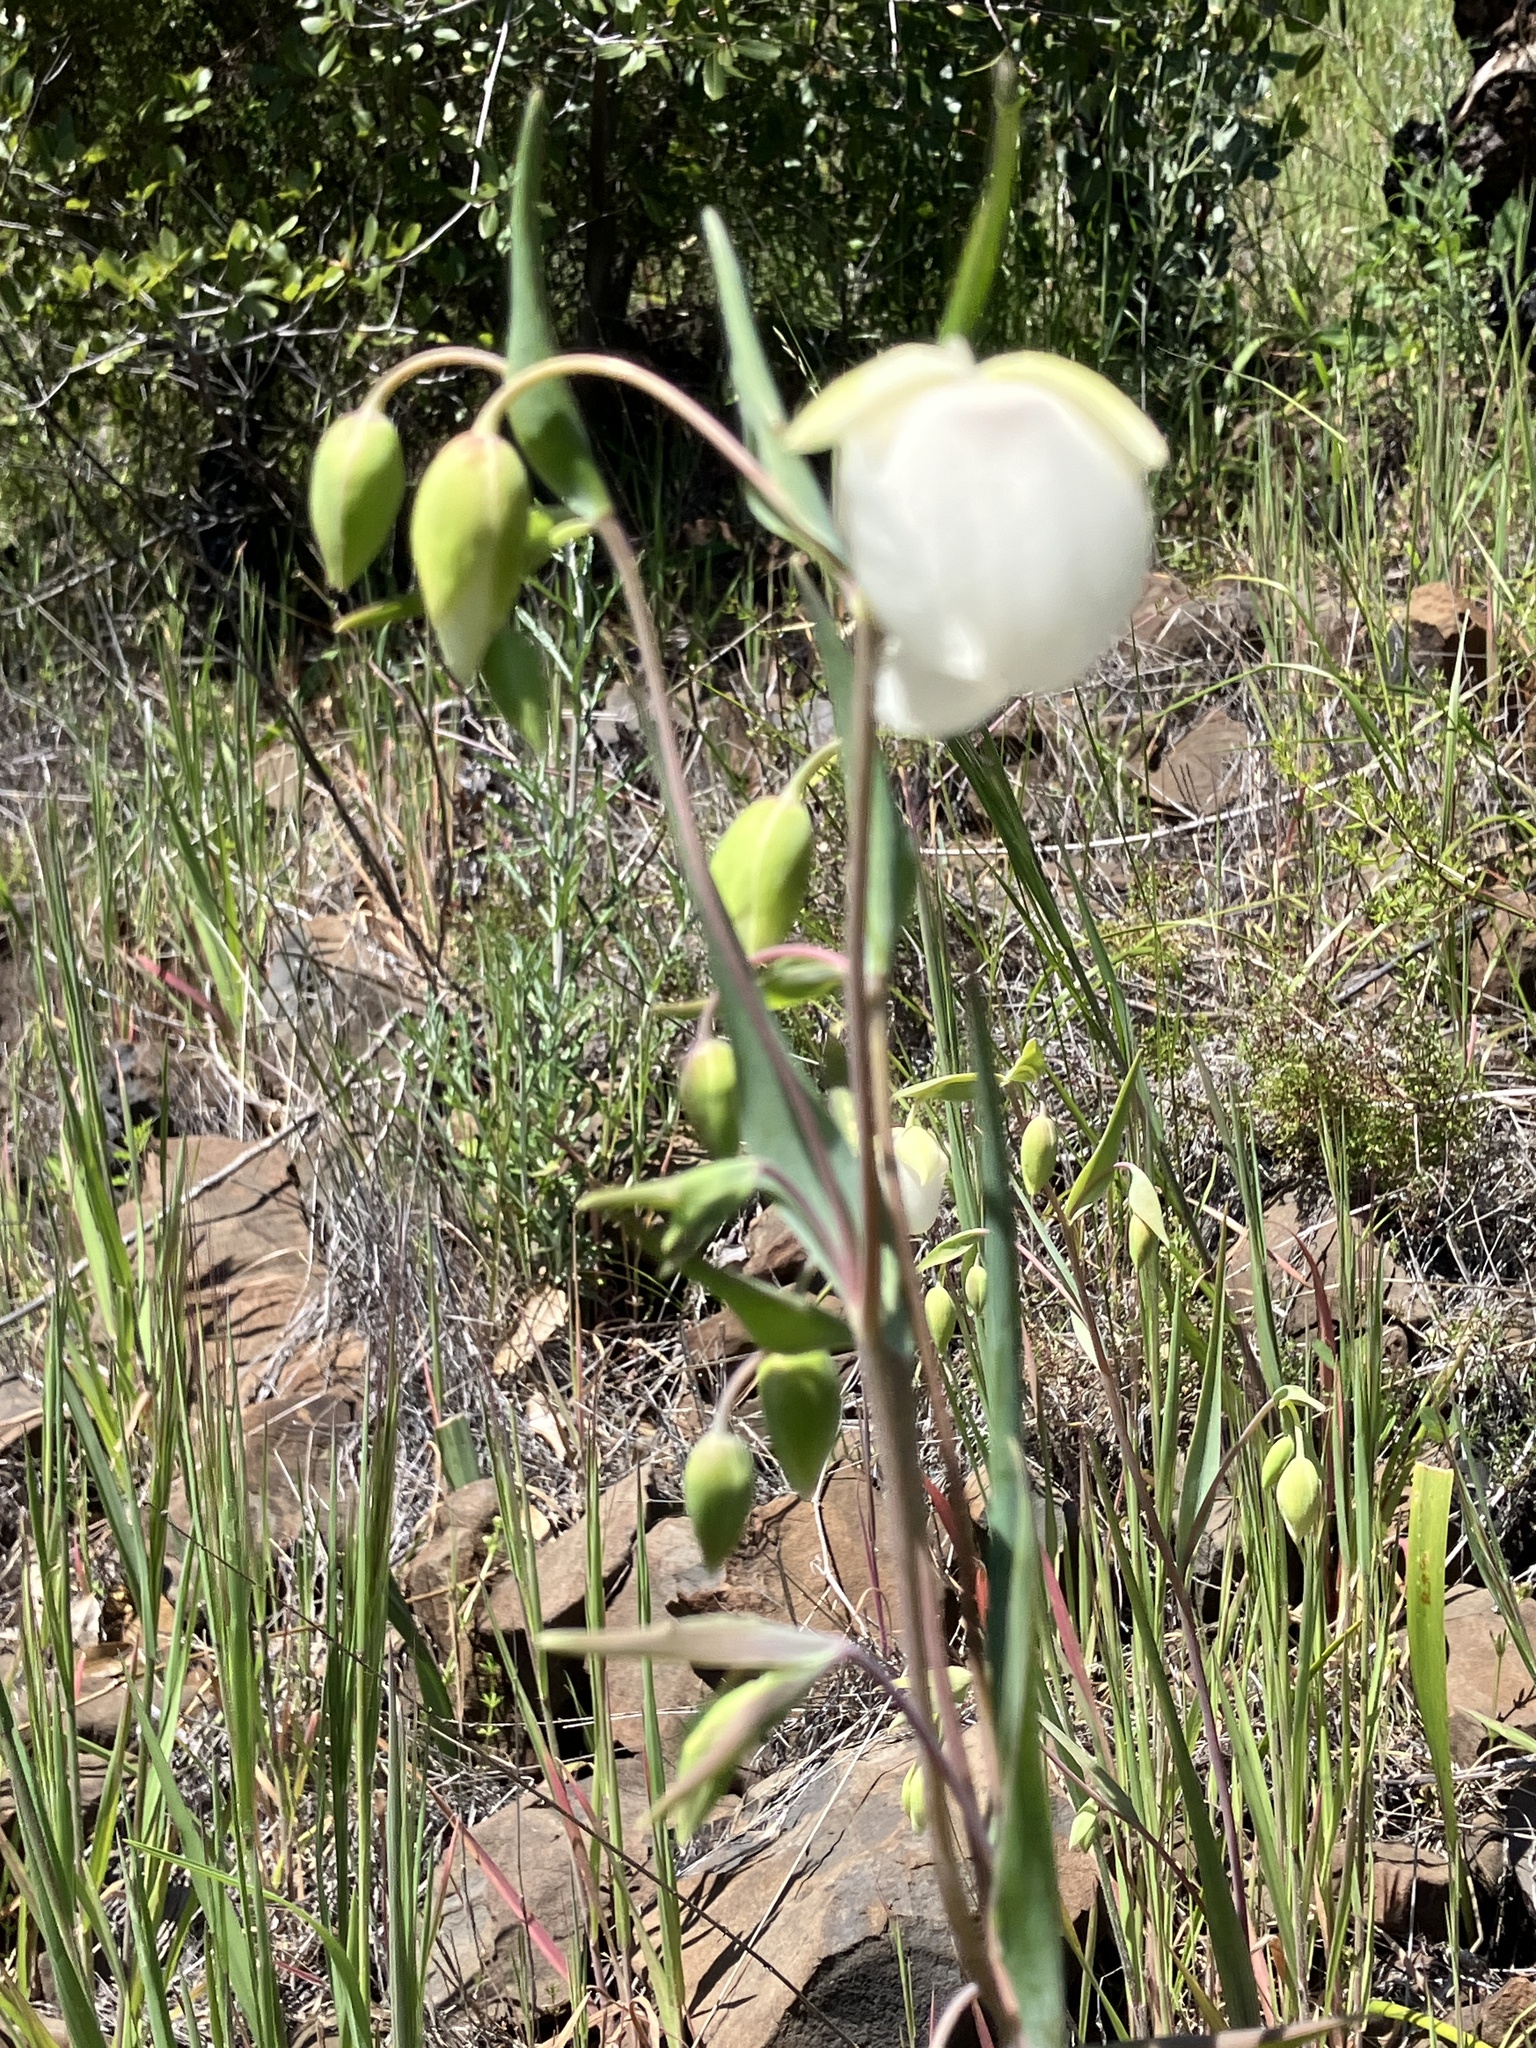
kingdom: Plantae
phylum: Tracheophyta
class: Liliopsida
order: Liliales
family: Liliaceae
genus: Calochortus
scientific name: Calochortus albus
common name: Fairy-lantern
